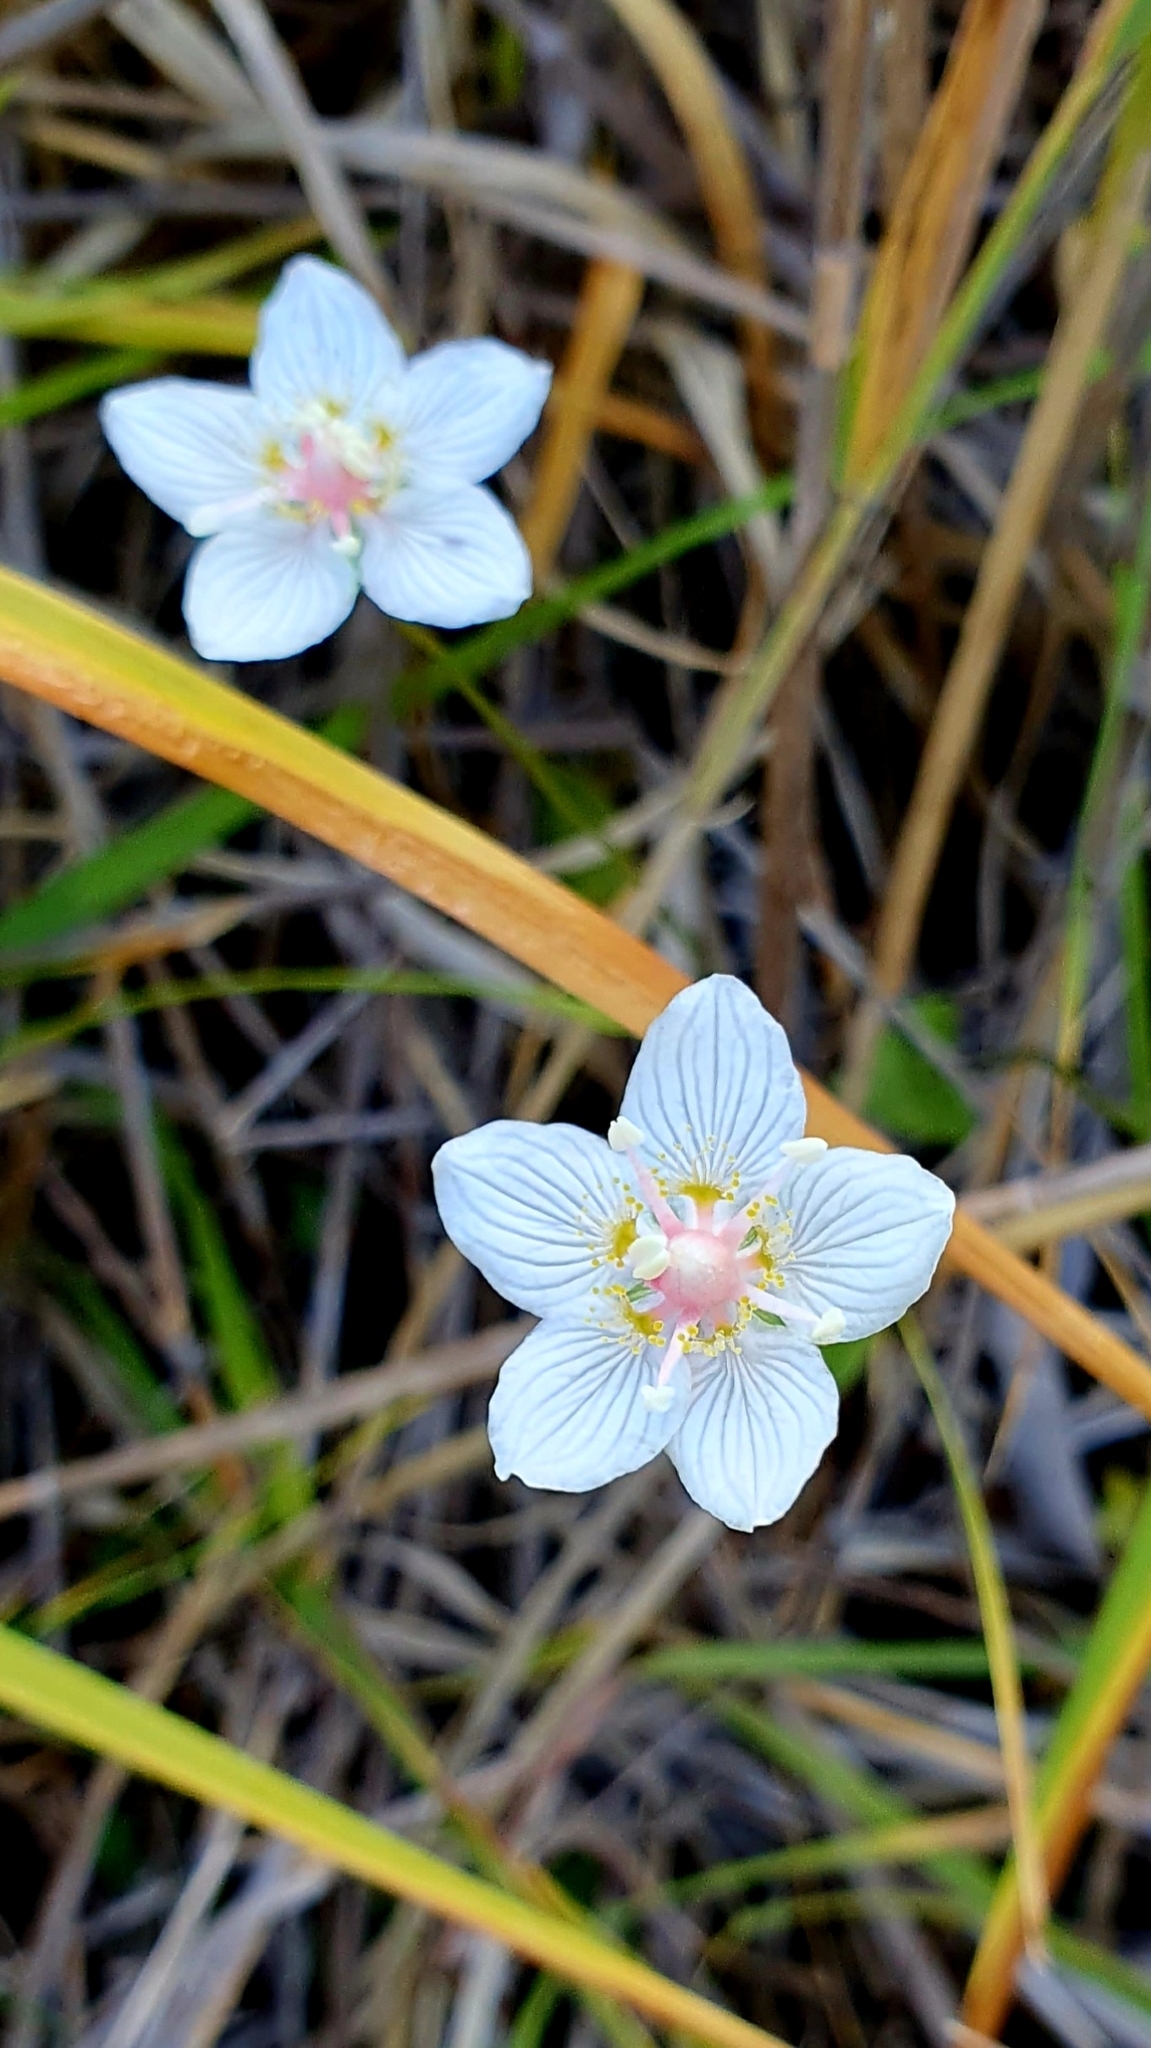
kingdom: Plantae
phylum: Tracheophyta
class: Magnoliopsida
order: Celastrales
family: Parnassiaceae
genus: Parnassia
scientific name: Parnassia palustris
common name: Grass-of-parnassus
